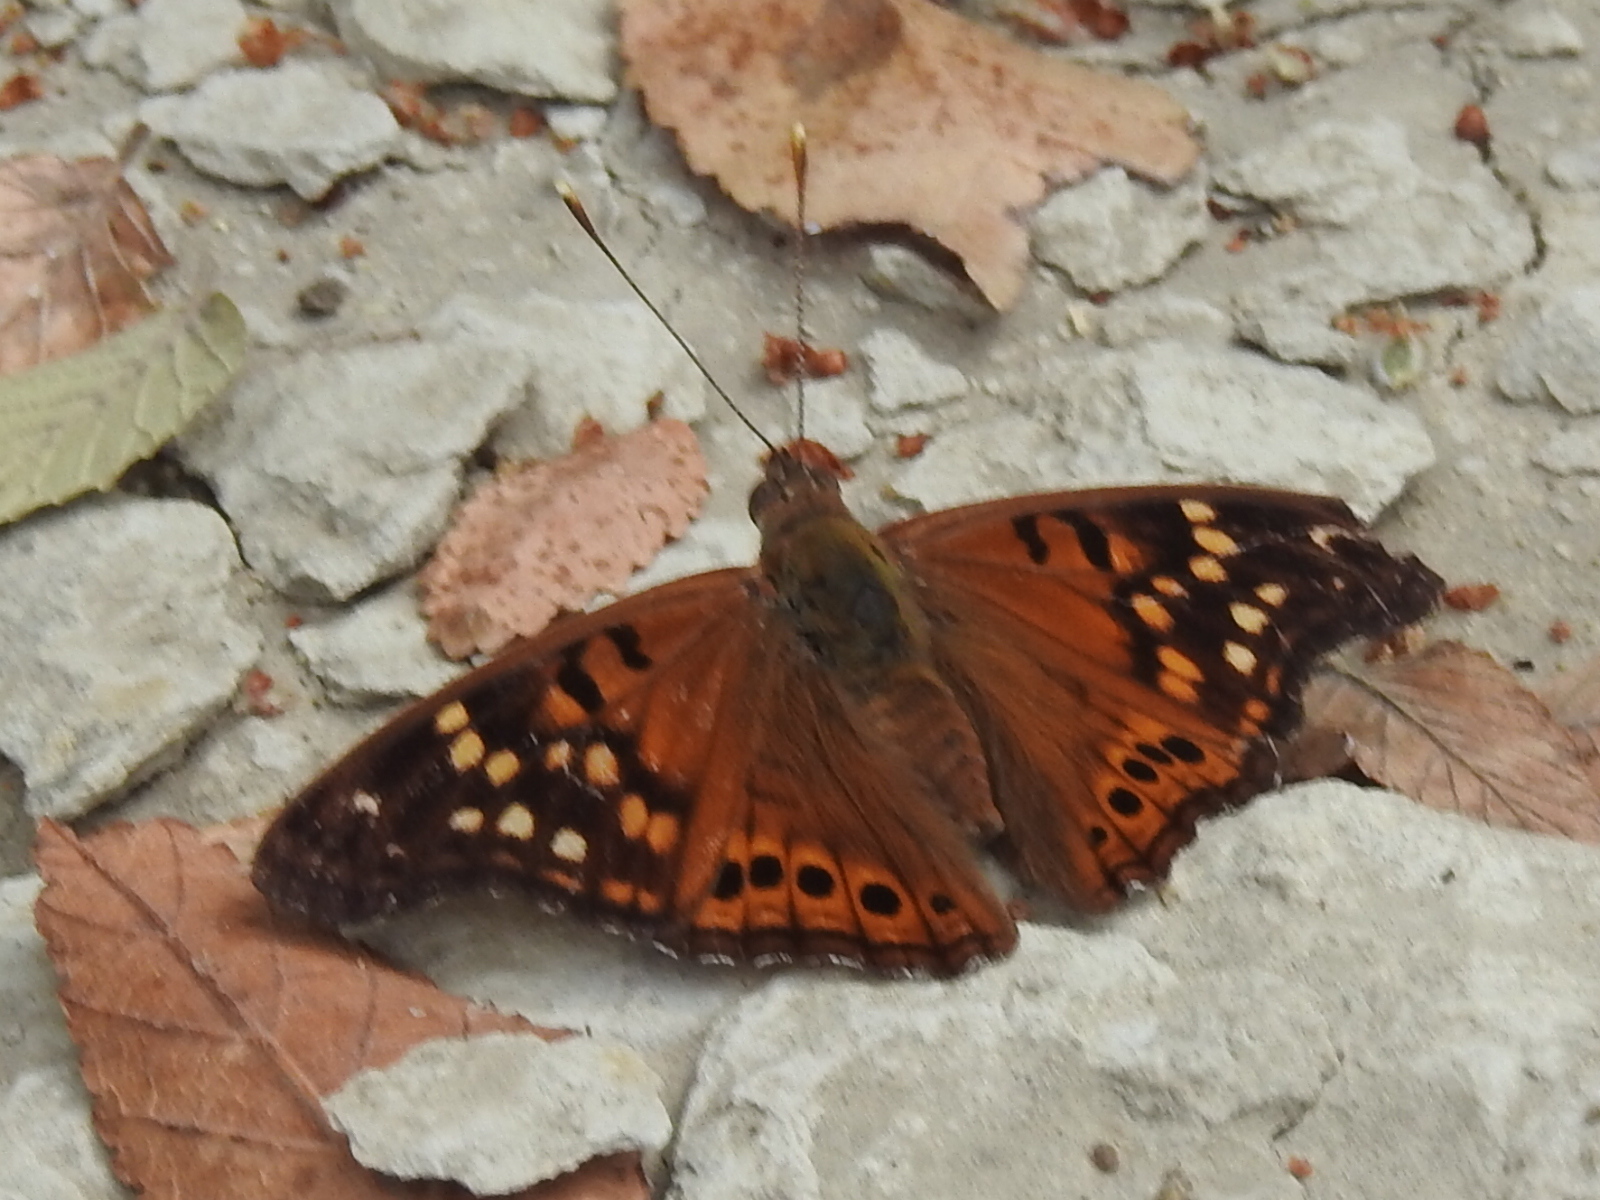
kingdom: Animalia
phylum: Arthropoda
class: Insecta
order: Lepidoptera
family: Nymphalidae
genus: Asterocampa
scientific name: Asterocampa clyton
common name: Tawny emperor
